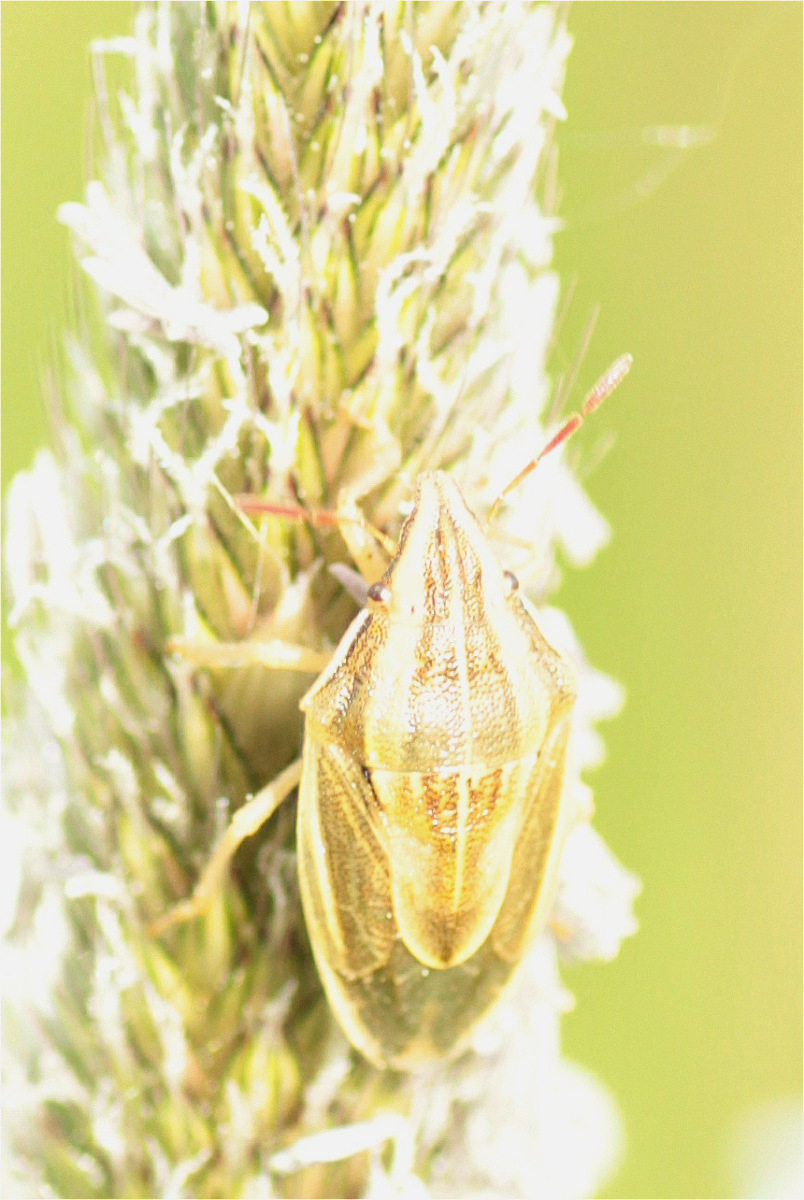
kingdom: Animalia
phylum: Arthropoda
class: Insecta
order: Hemiptera
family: Pentatomidae
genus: Aelia
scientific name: Aelia acuminata
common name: Bishop's mitre
